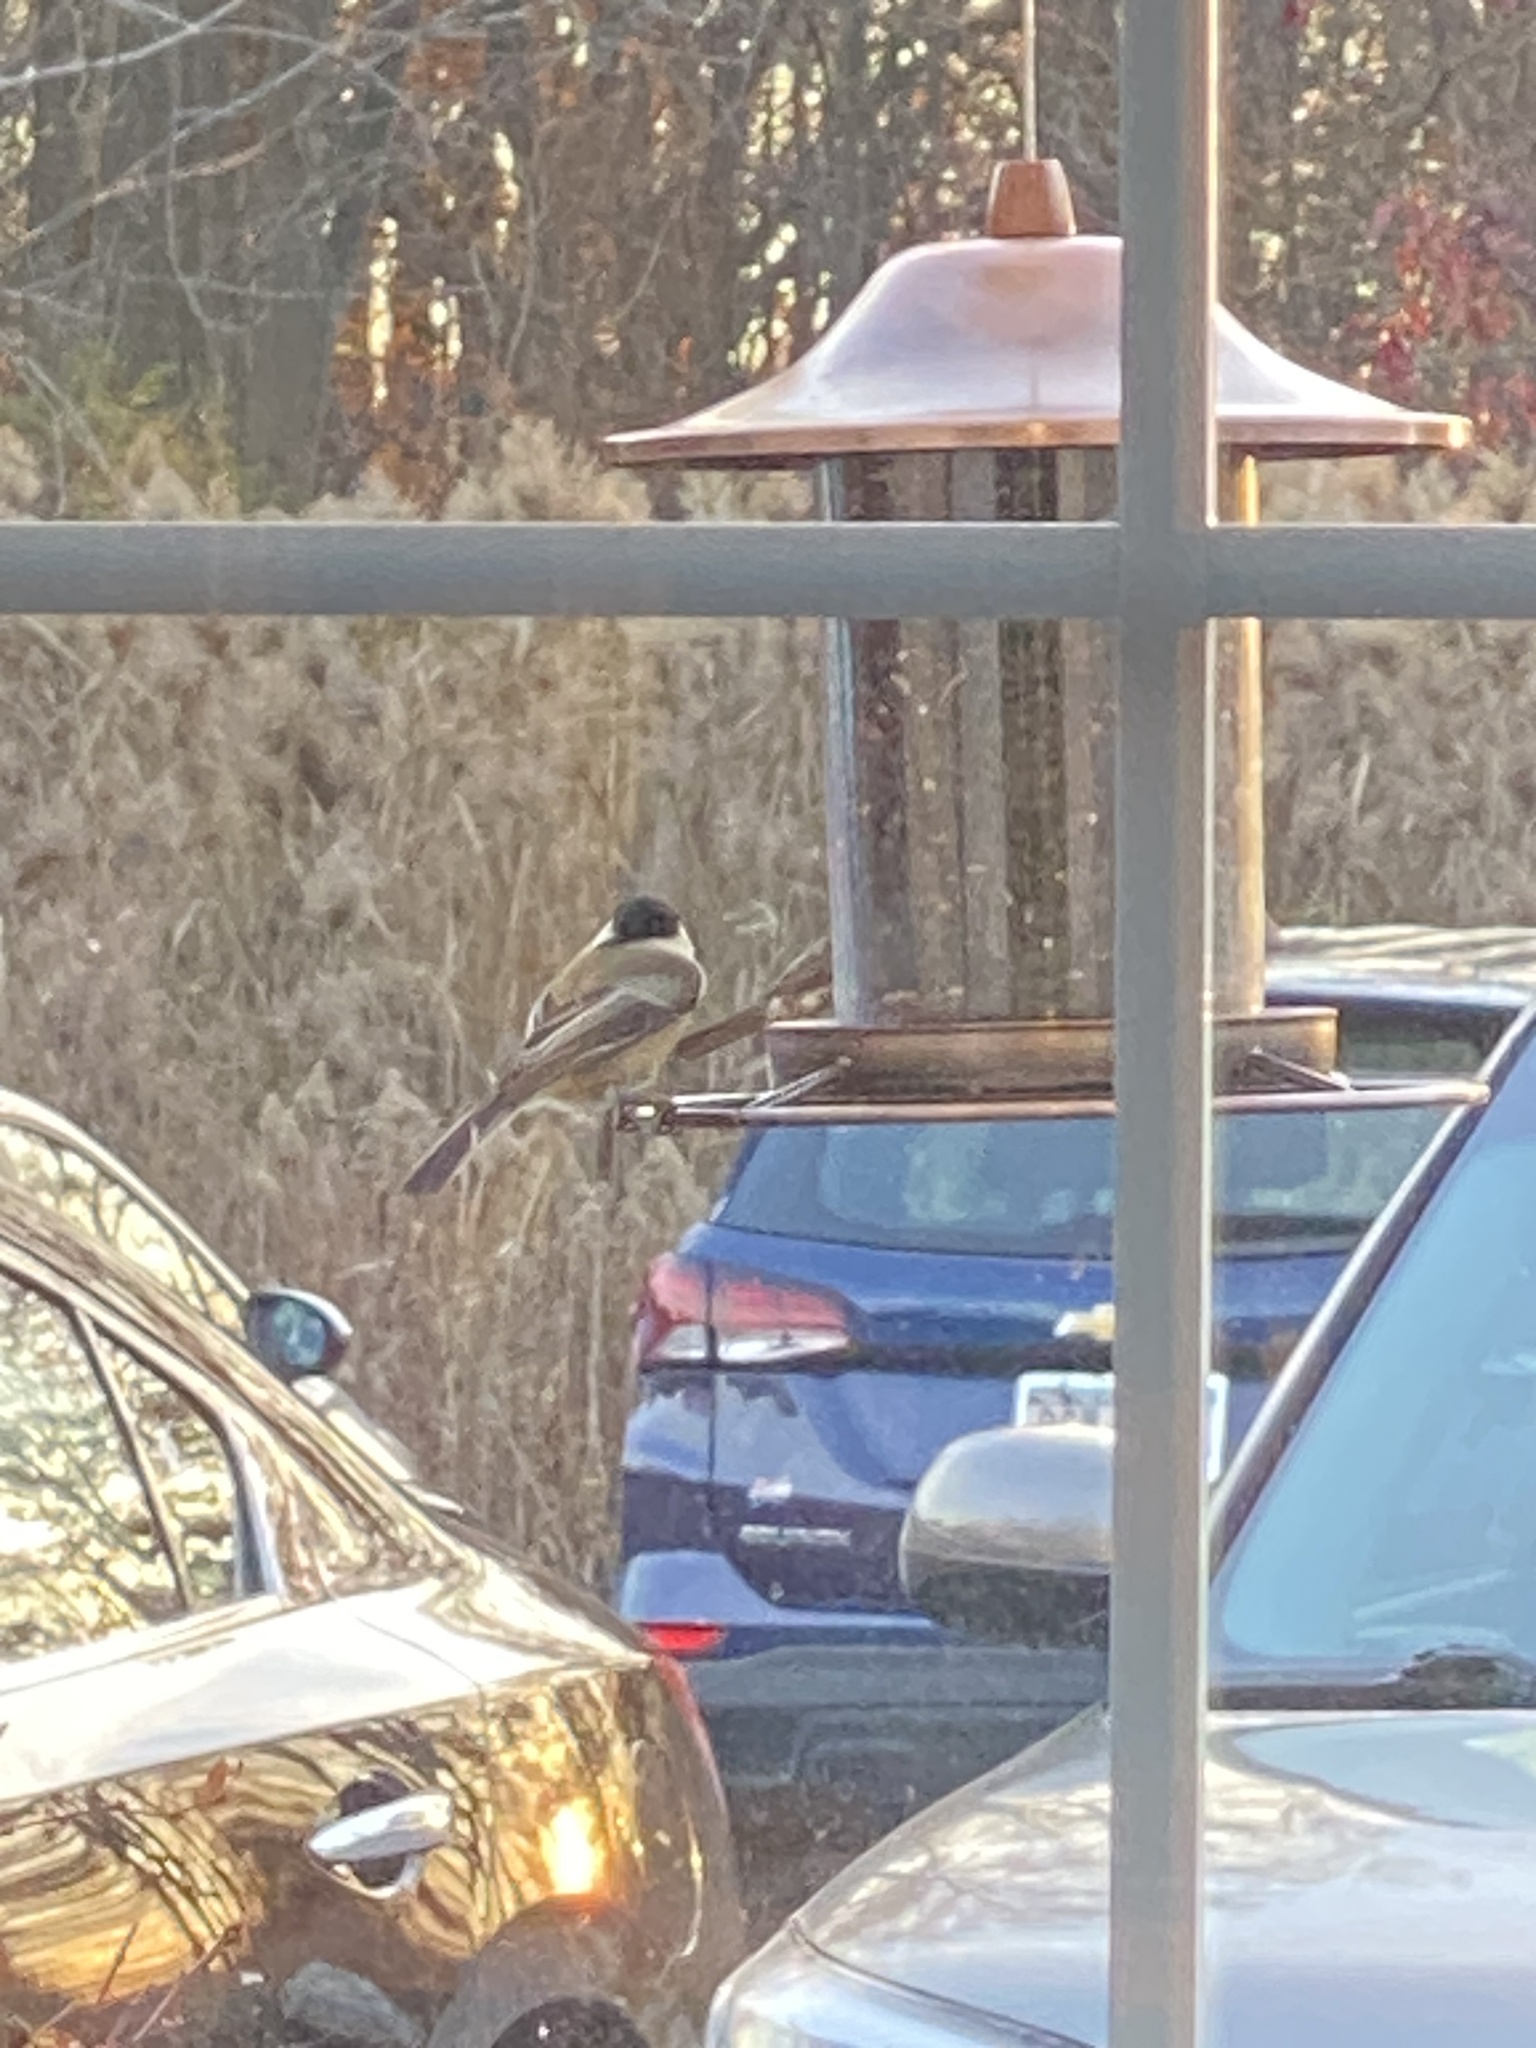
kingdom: Animalia
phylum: Chordata
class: Aves
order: Passeriformes
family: Paridae
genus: Poecile
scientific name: Poecile atricapillus
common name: Black-capped chickadee
